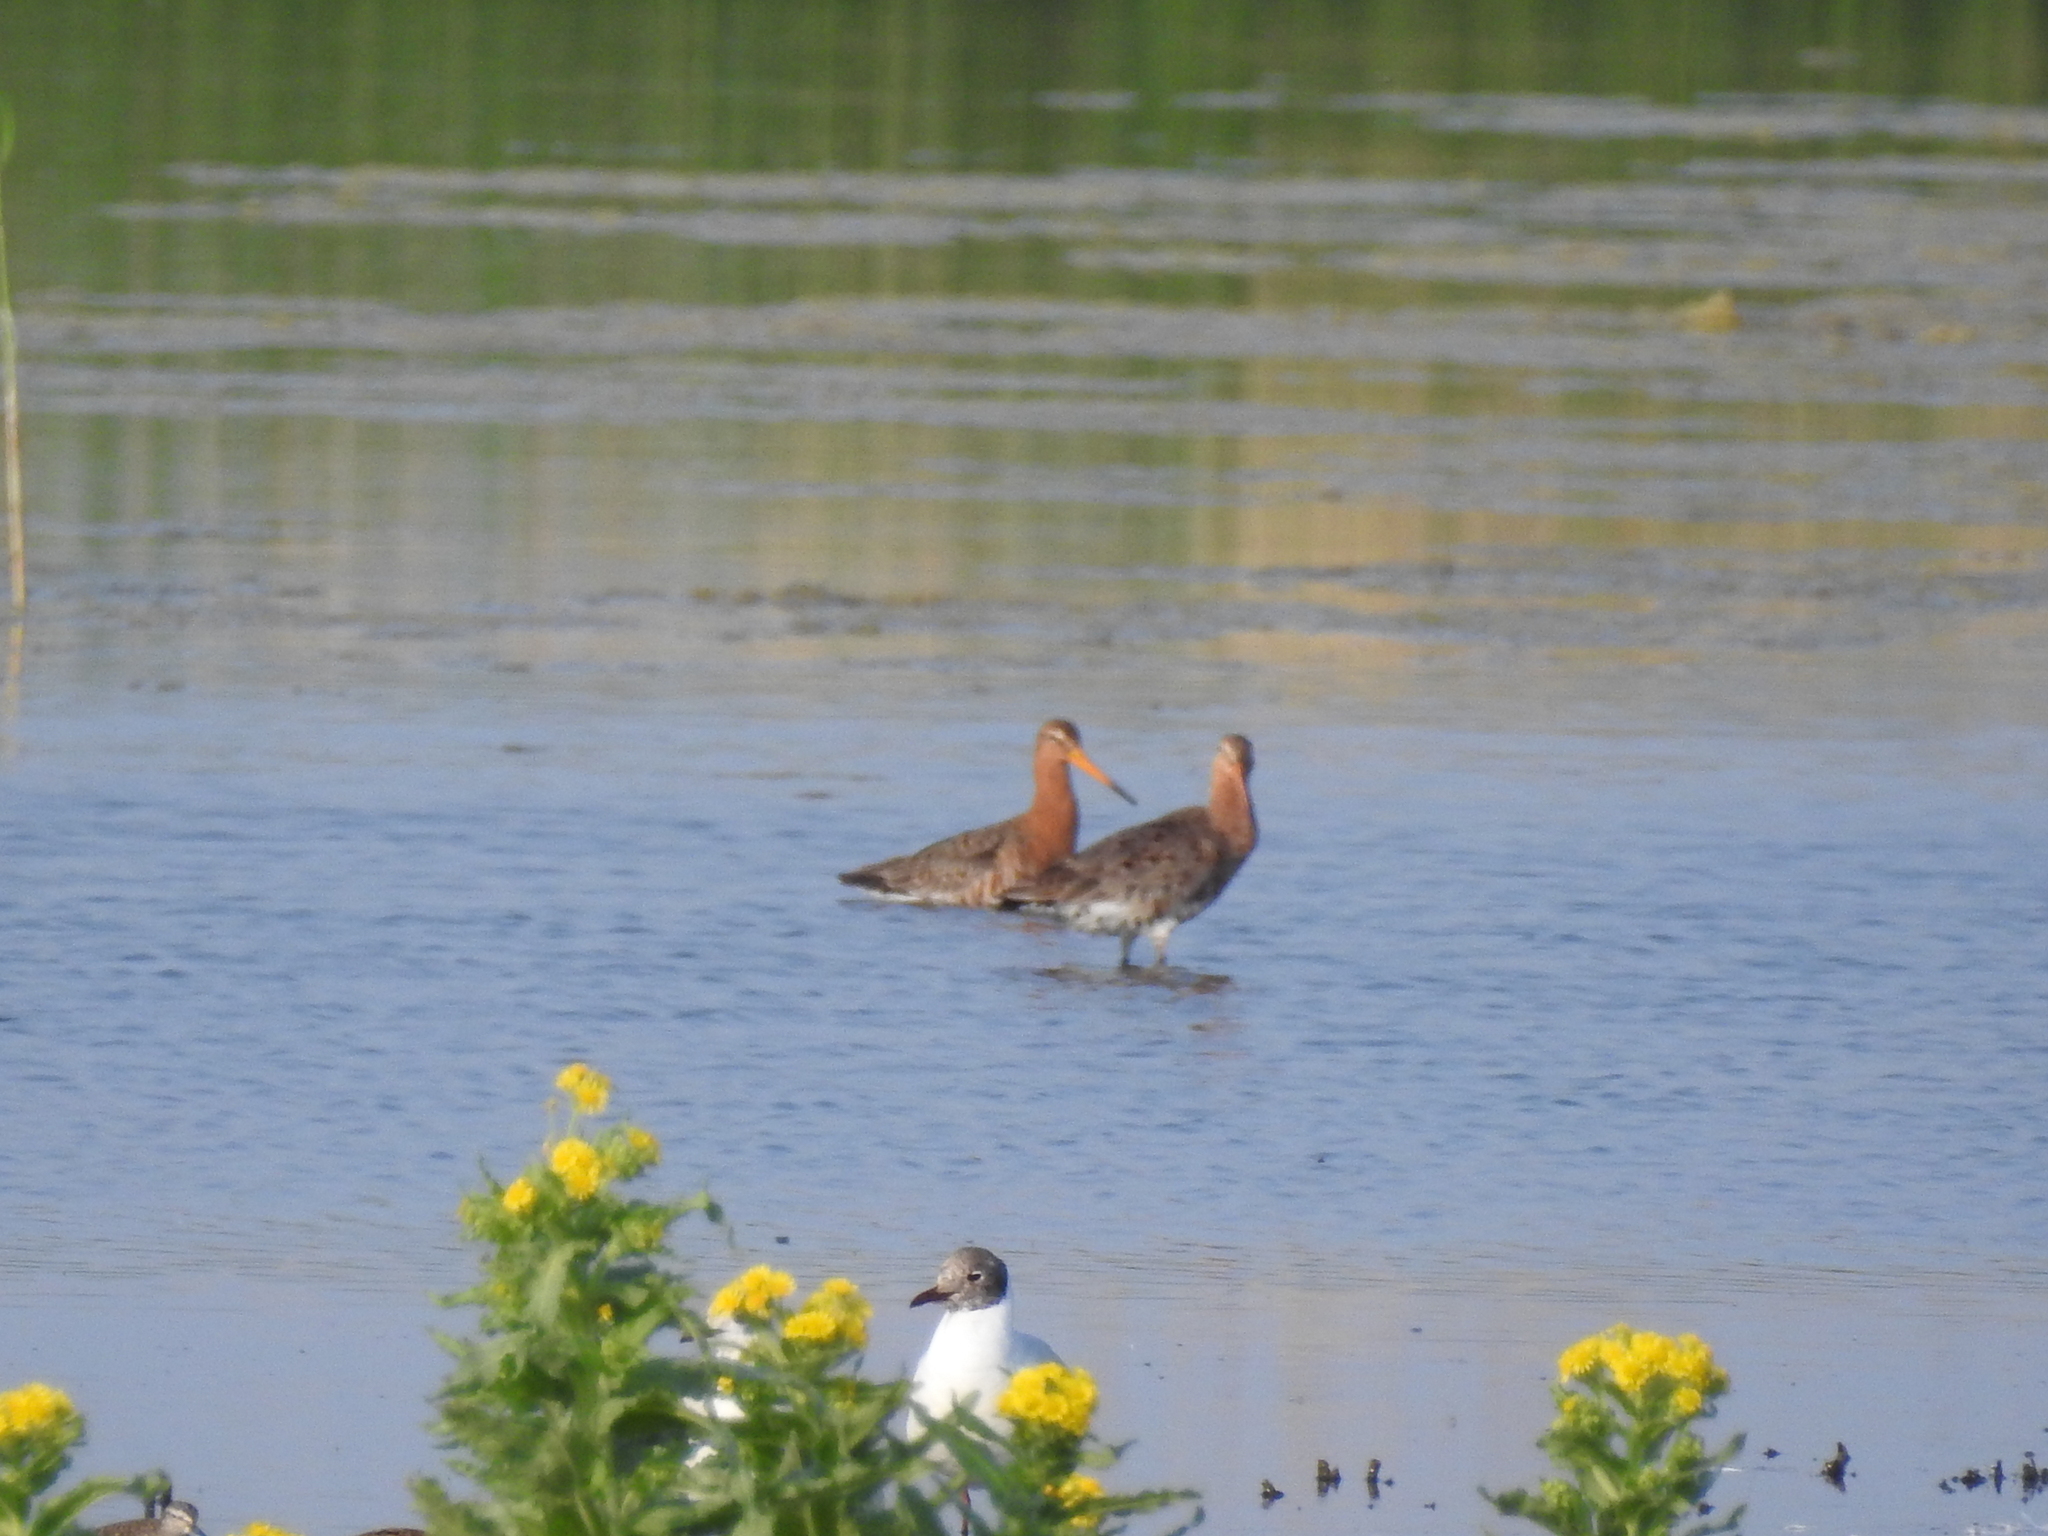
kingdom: Animalia
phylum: Chordata
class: Aves
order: Charadriiformes
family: Scolopacidae
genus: Limosa
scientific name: Limosa limosa
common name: Black-tailed godwit
